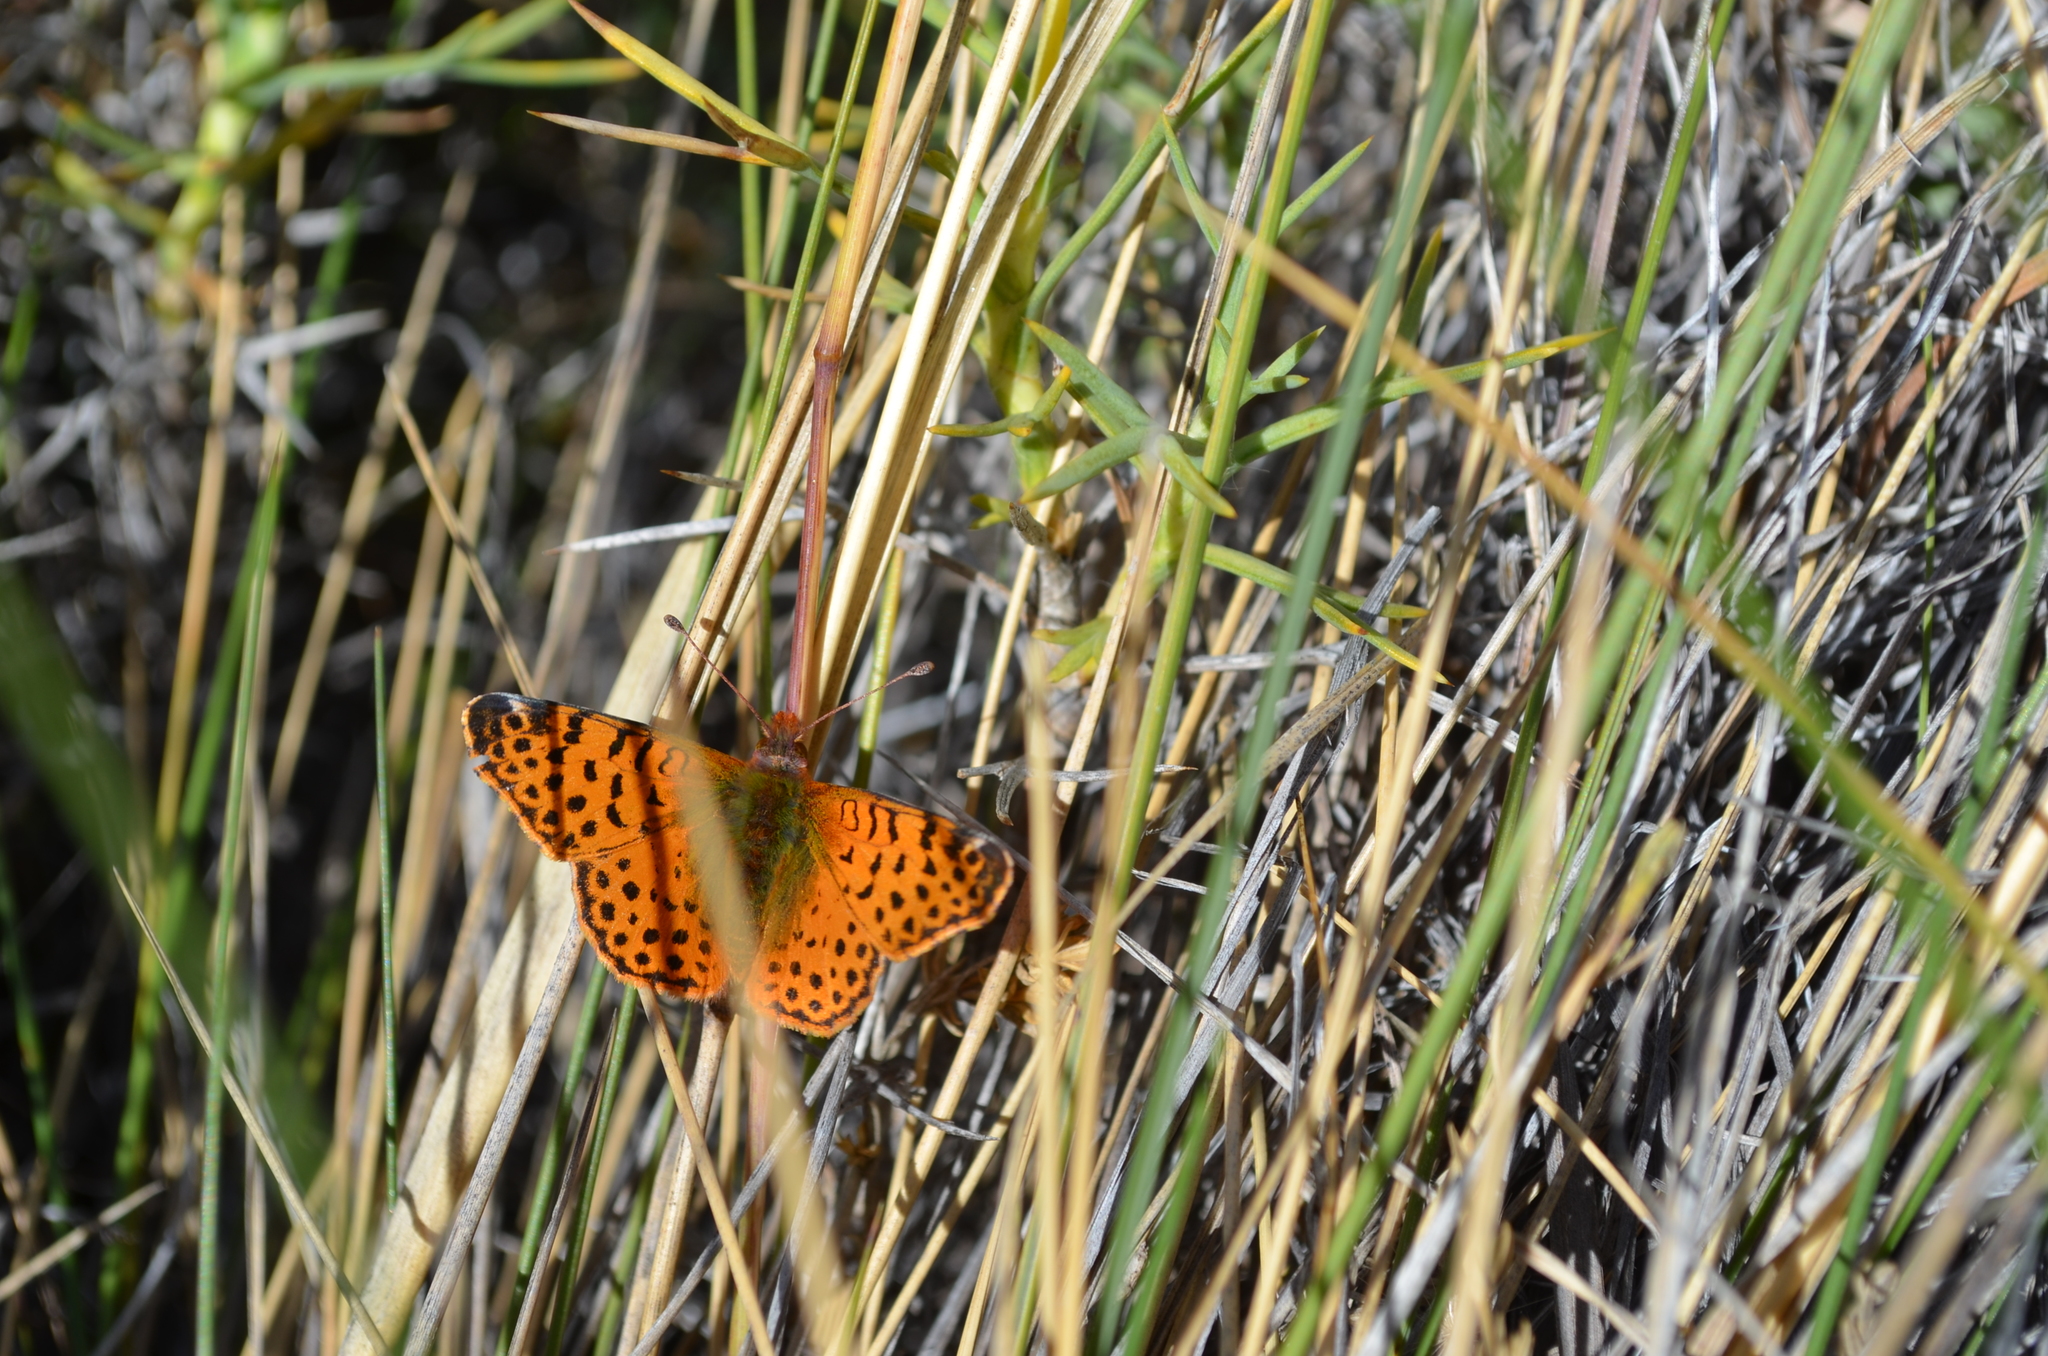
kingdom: Animalia
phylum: Arthropoda
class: Insecta
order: Lepidoptera
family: Nymphalidae
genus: Issoria
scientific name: Issoria Yramea cytheris
